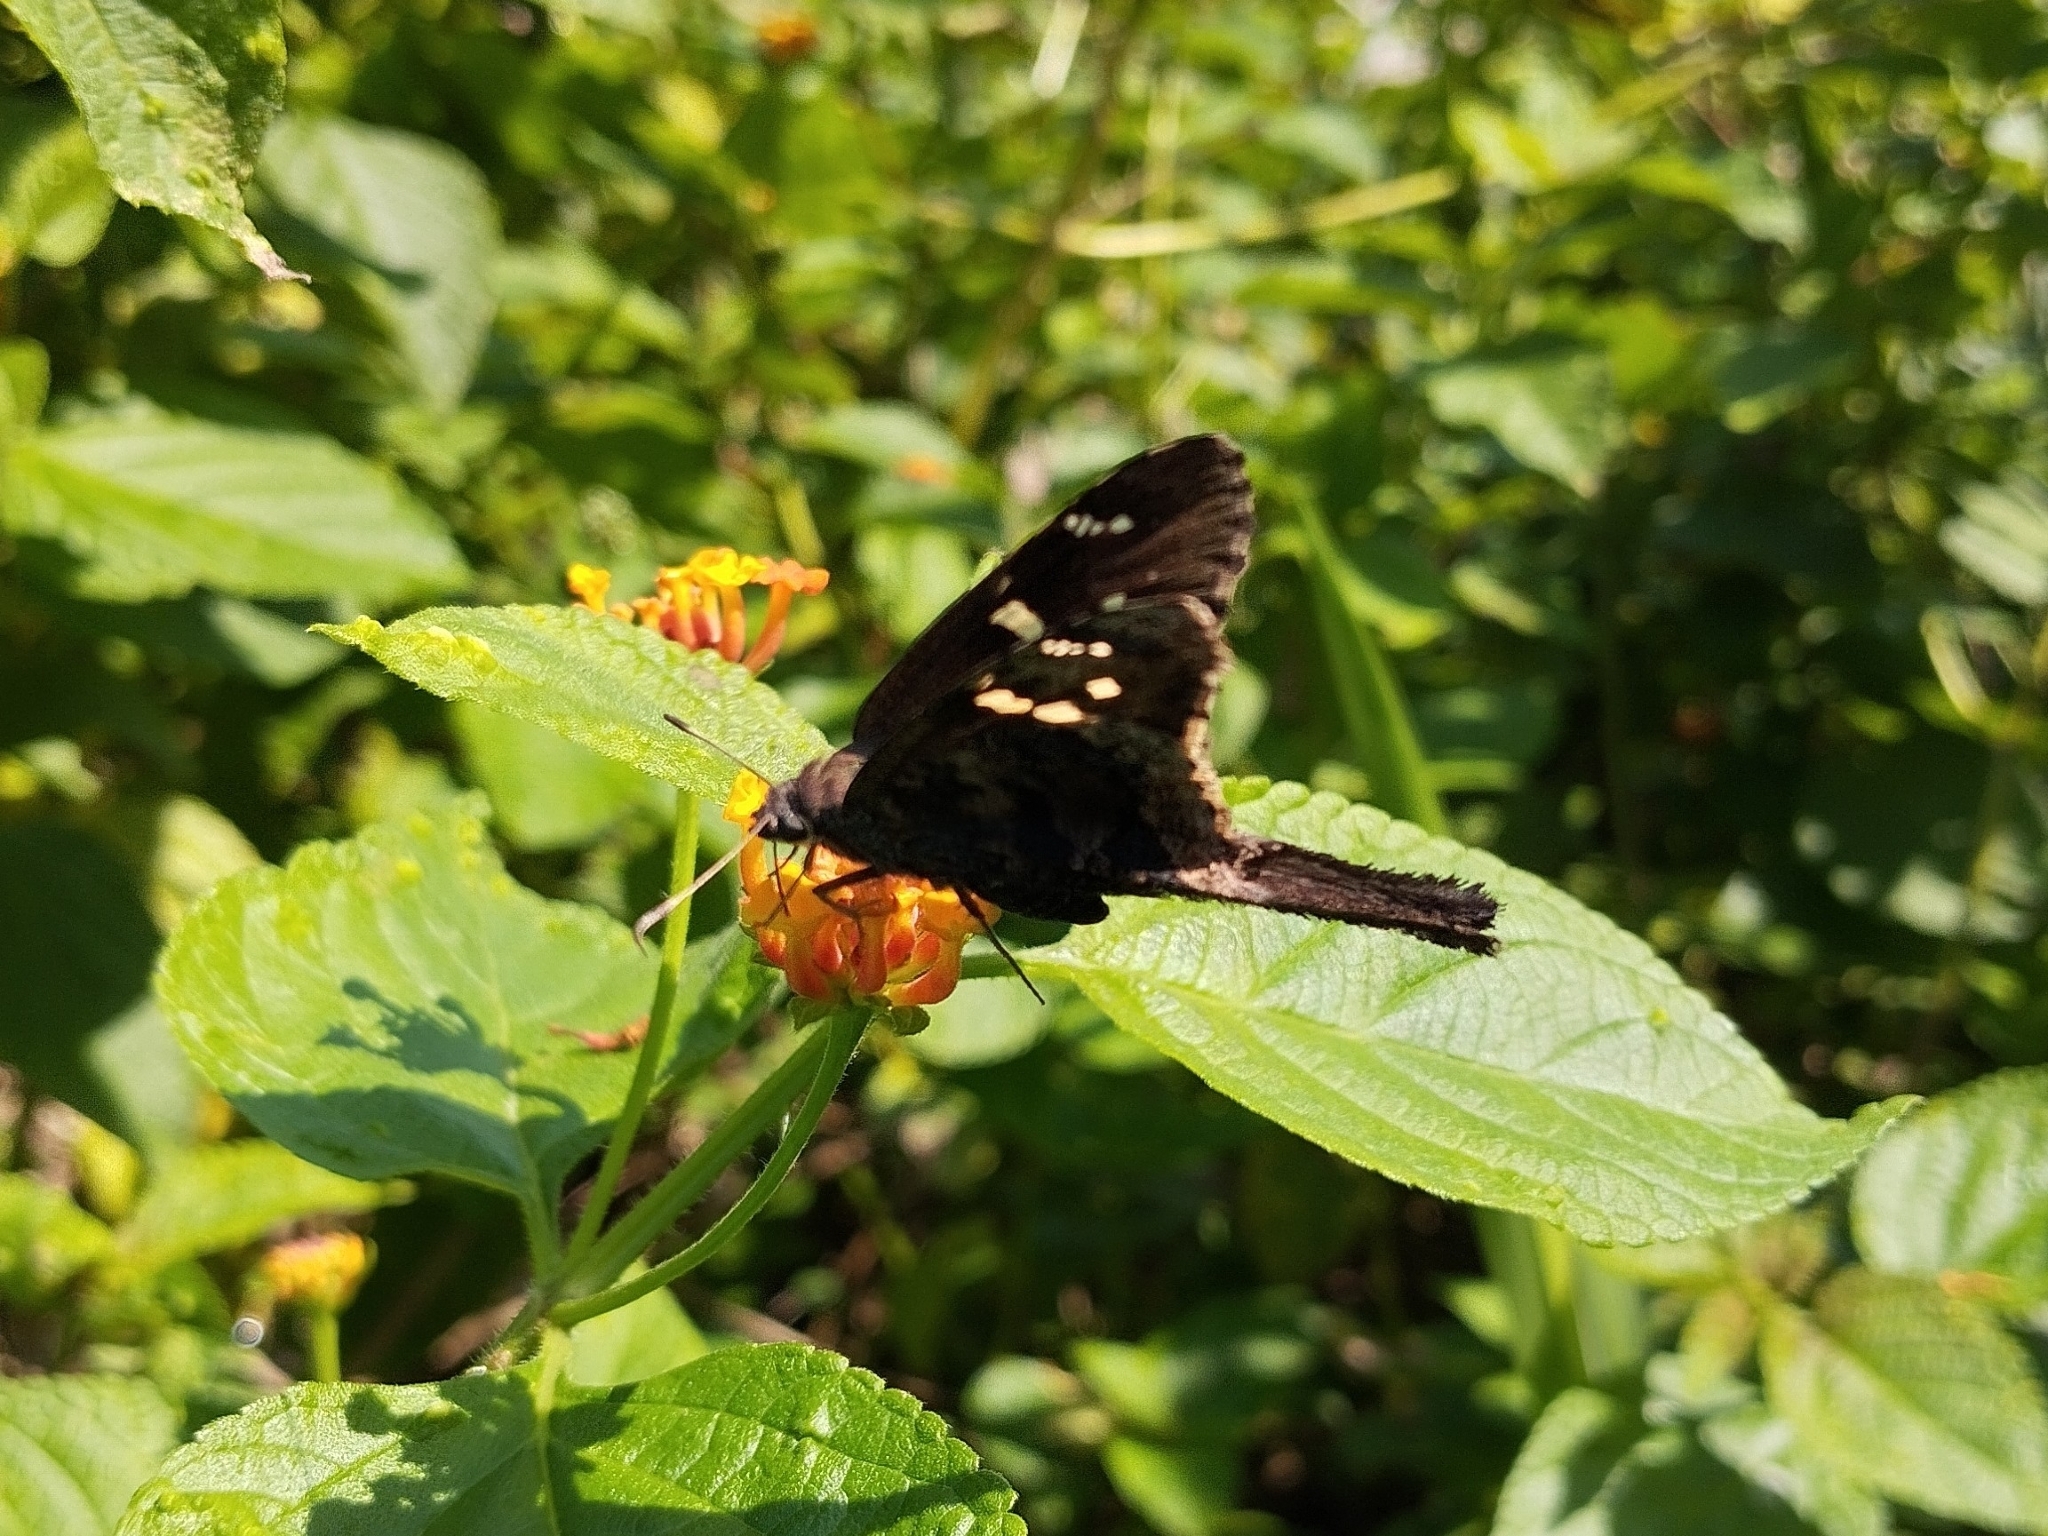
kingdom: Animalia
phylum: Arthropoda
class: Insecta
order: Lepidoptera
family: Hesperiidae
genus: Thorybes
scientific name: Thorybes
